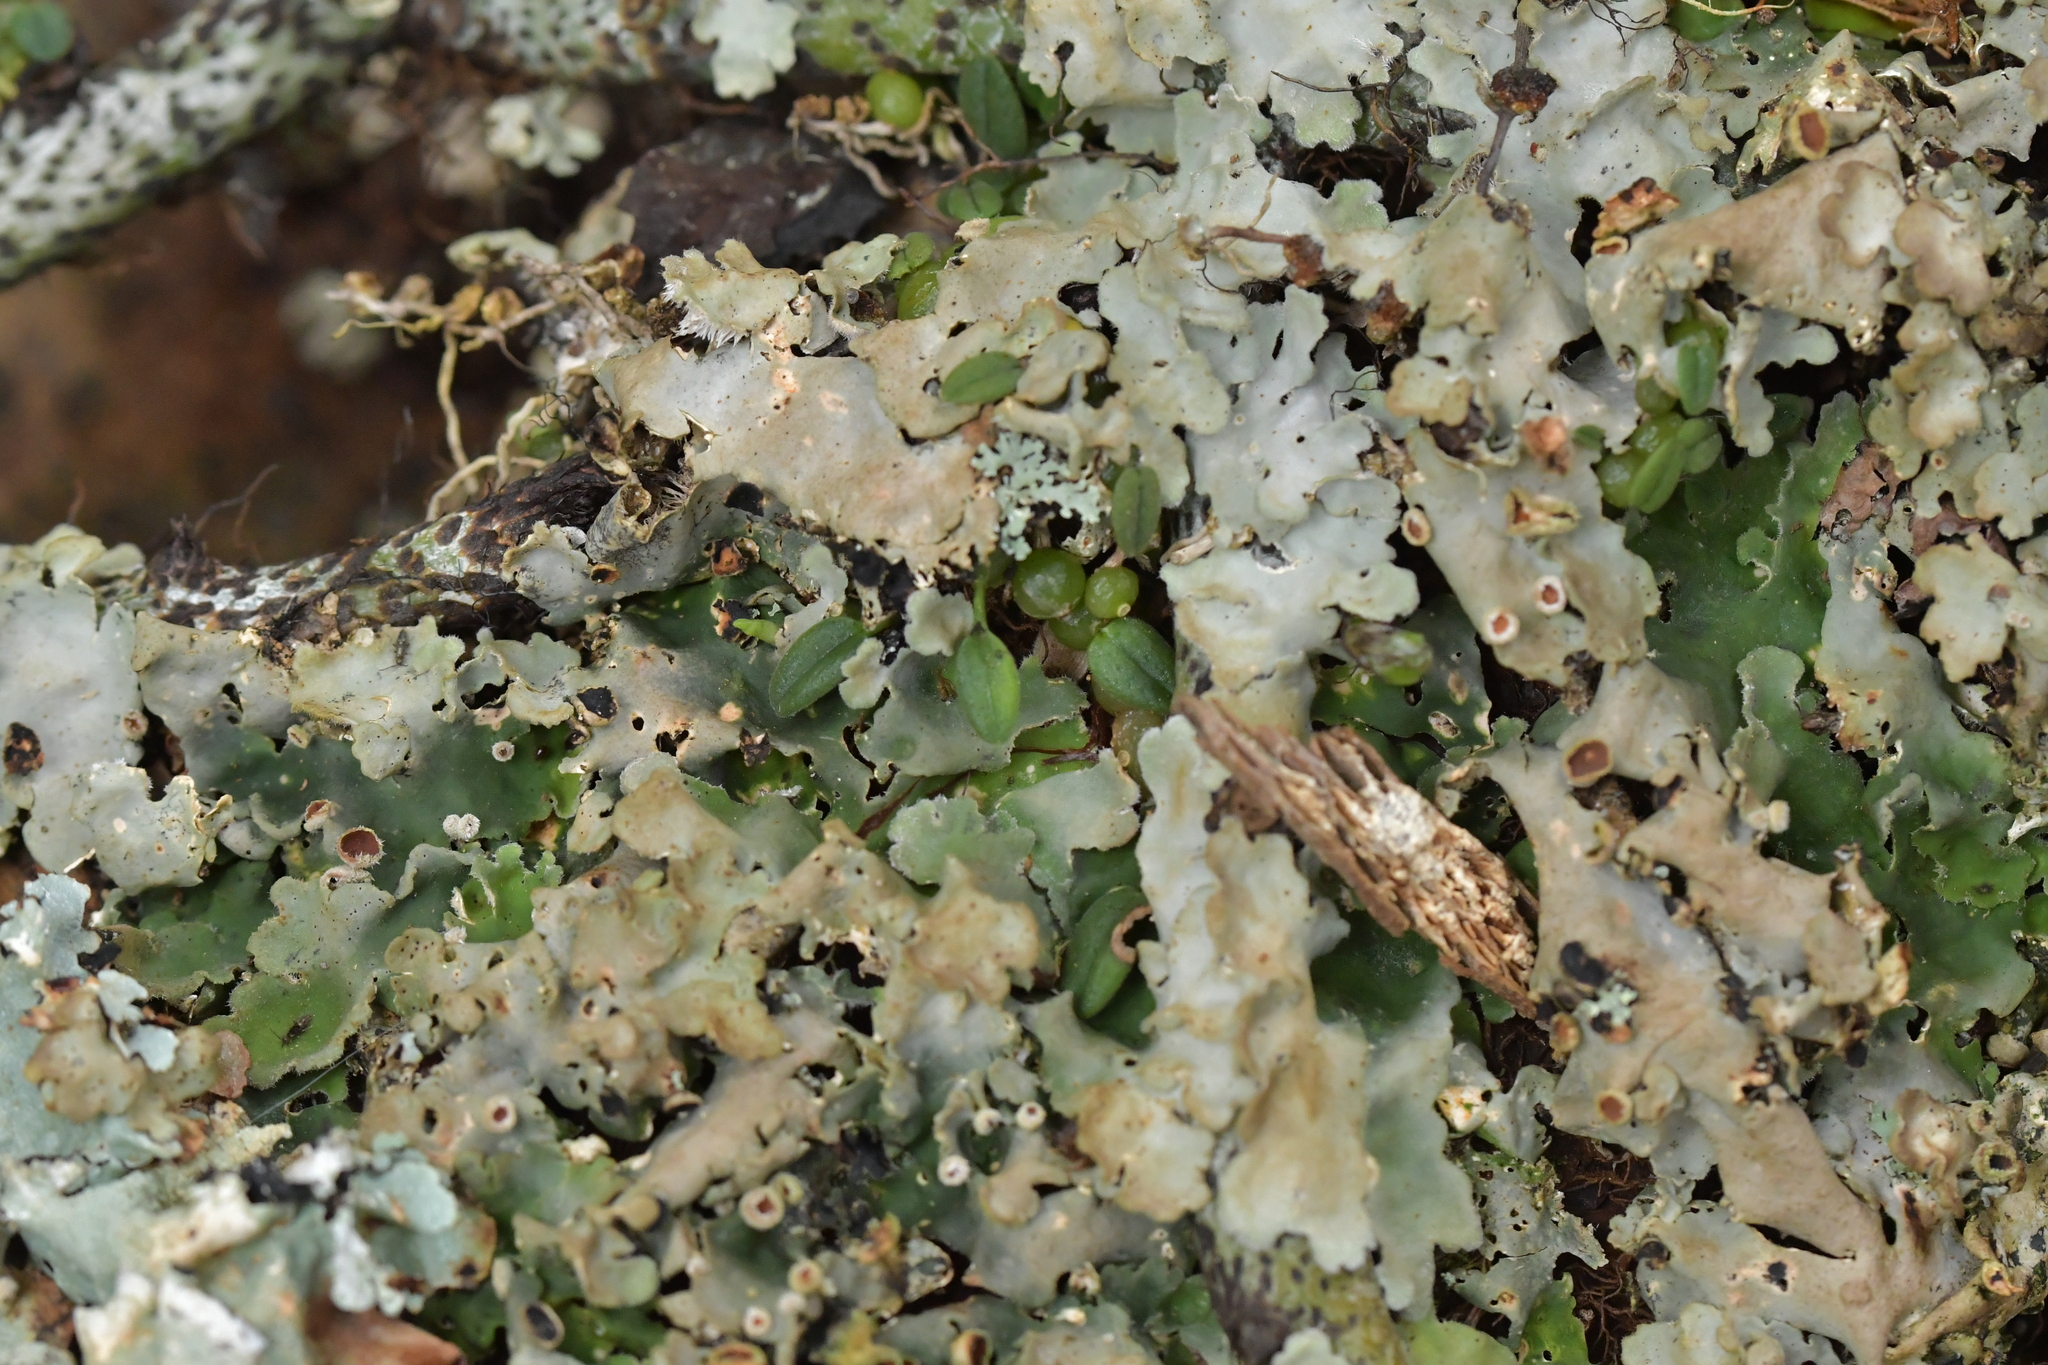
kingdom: Plantae
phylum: Tracheophyta
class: Liliopsida
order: Asparagales
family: Orchidaceae
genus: Bulbophyllum
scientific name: Bulbophyllum pygmaeum
